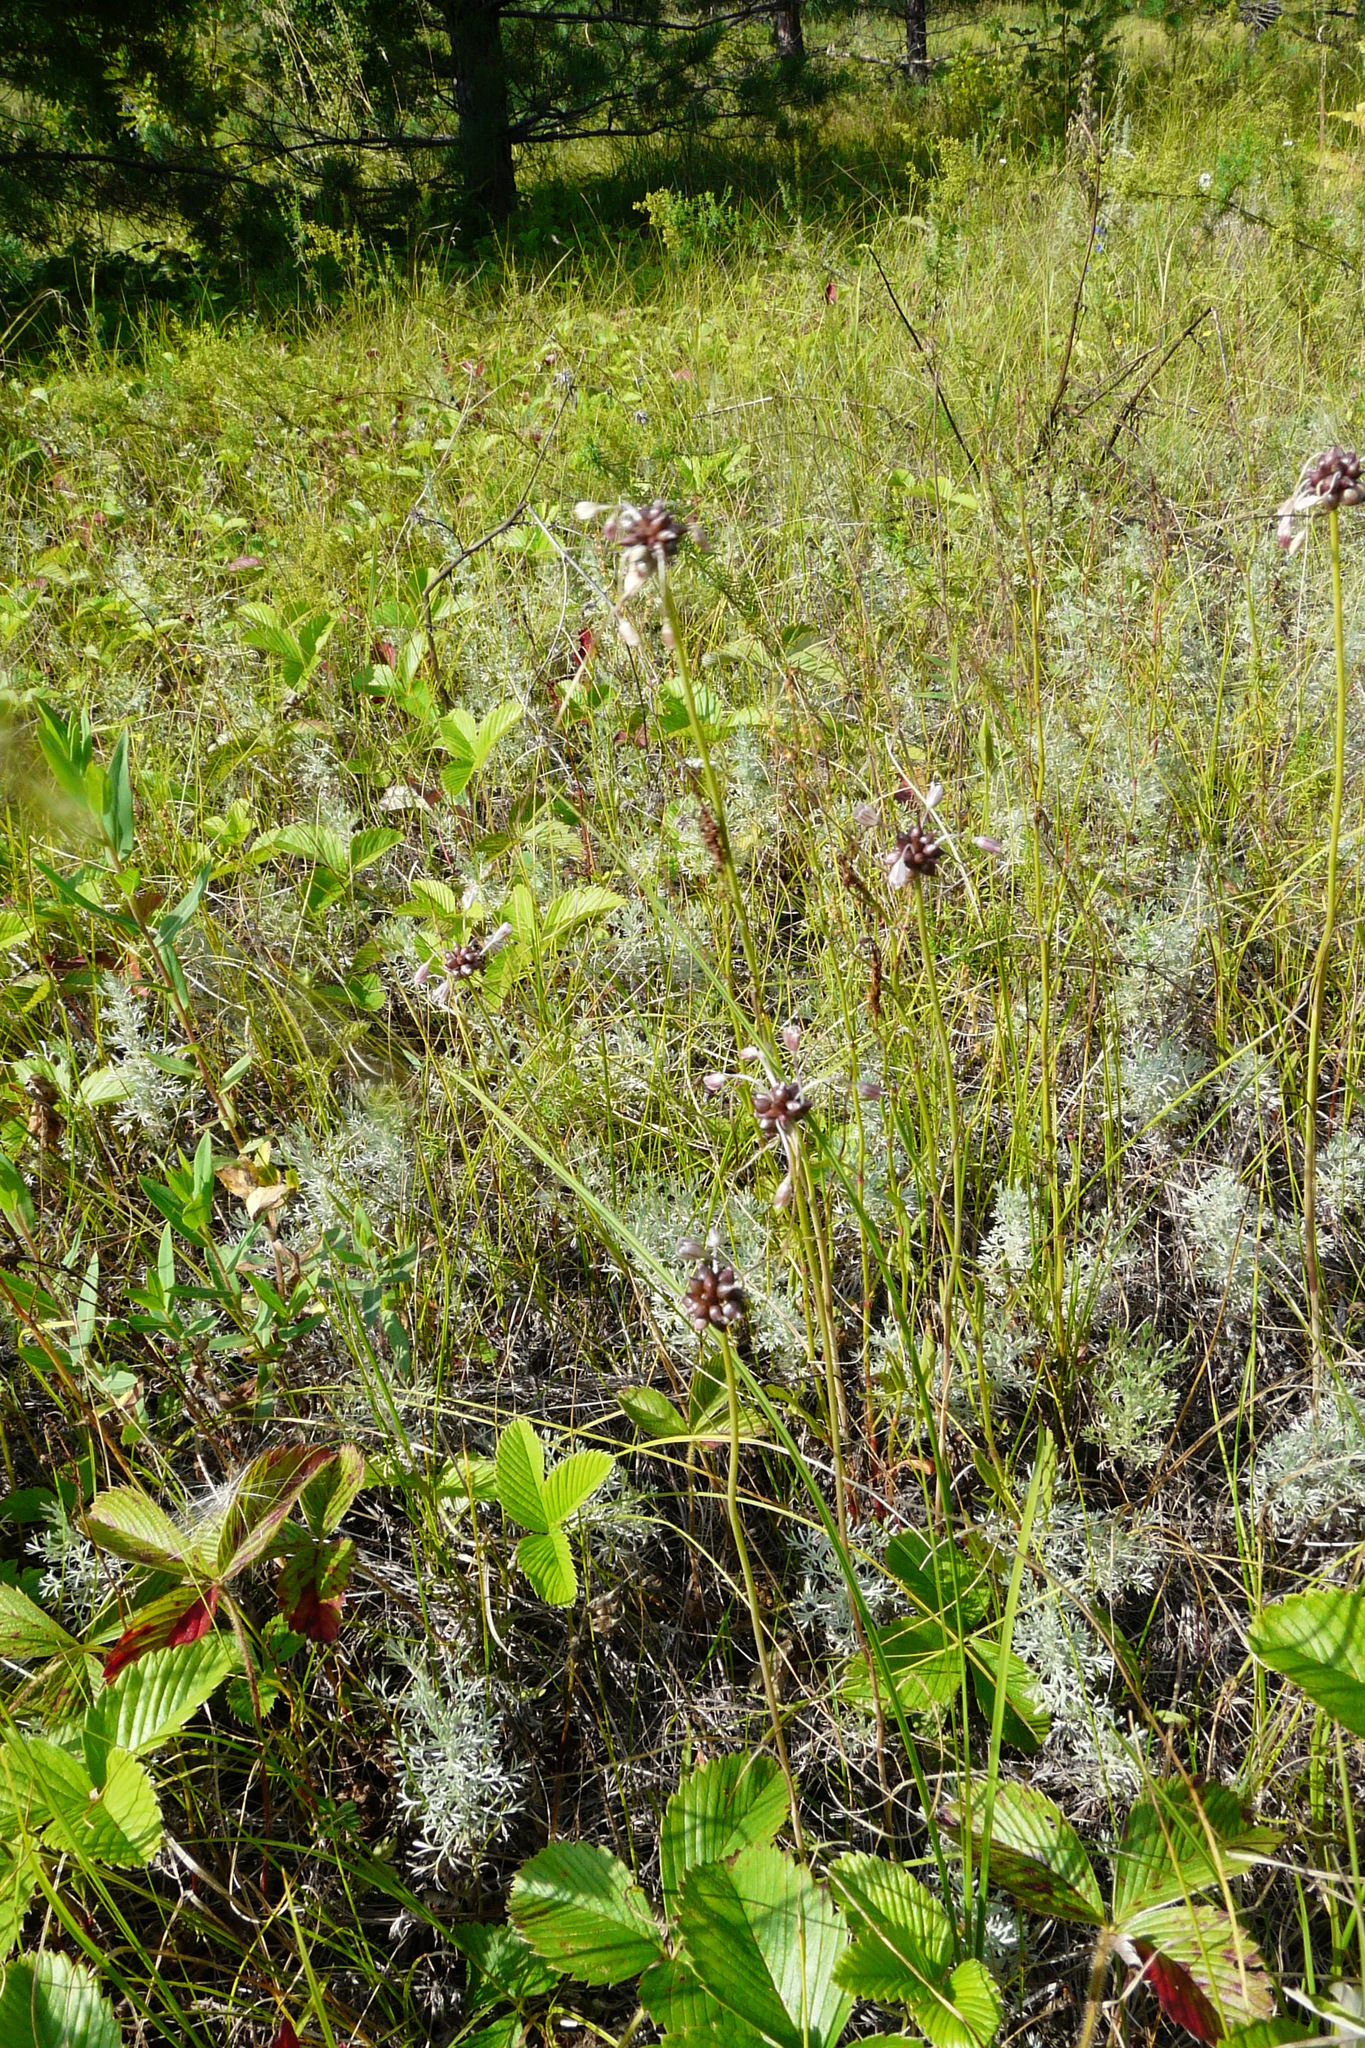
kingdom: Plantae
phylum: Tracheophyta
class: Liliopsida
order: Asparagales
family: Amaryllidaceae
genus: Allium
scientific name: Allium oleraceum
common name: Field garlic
